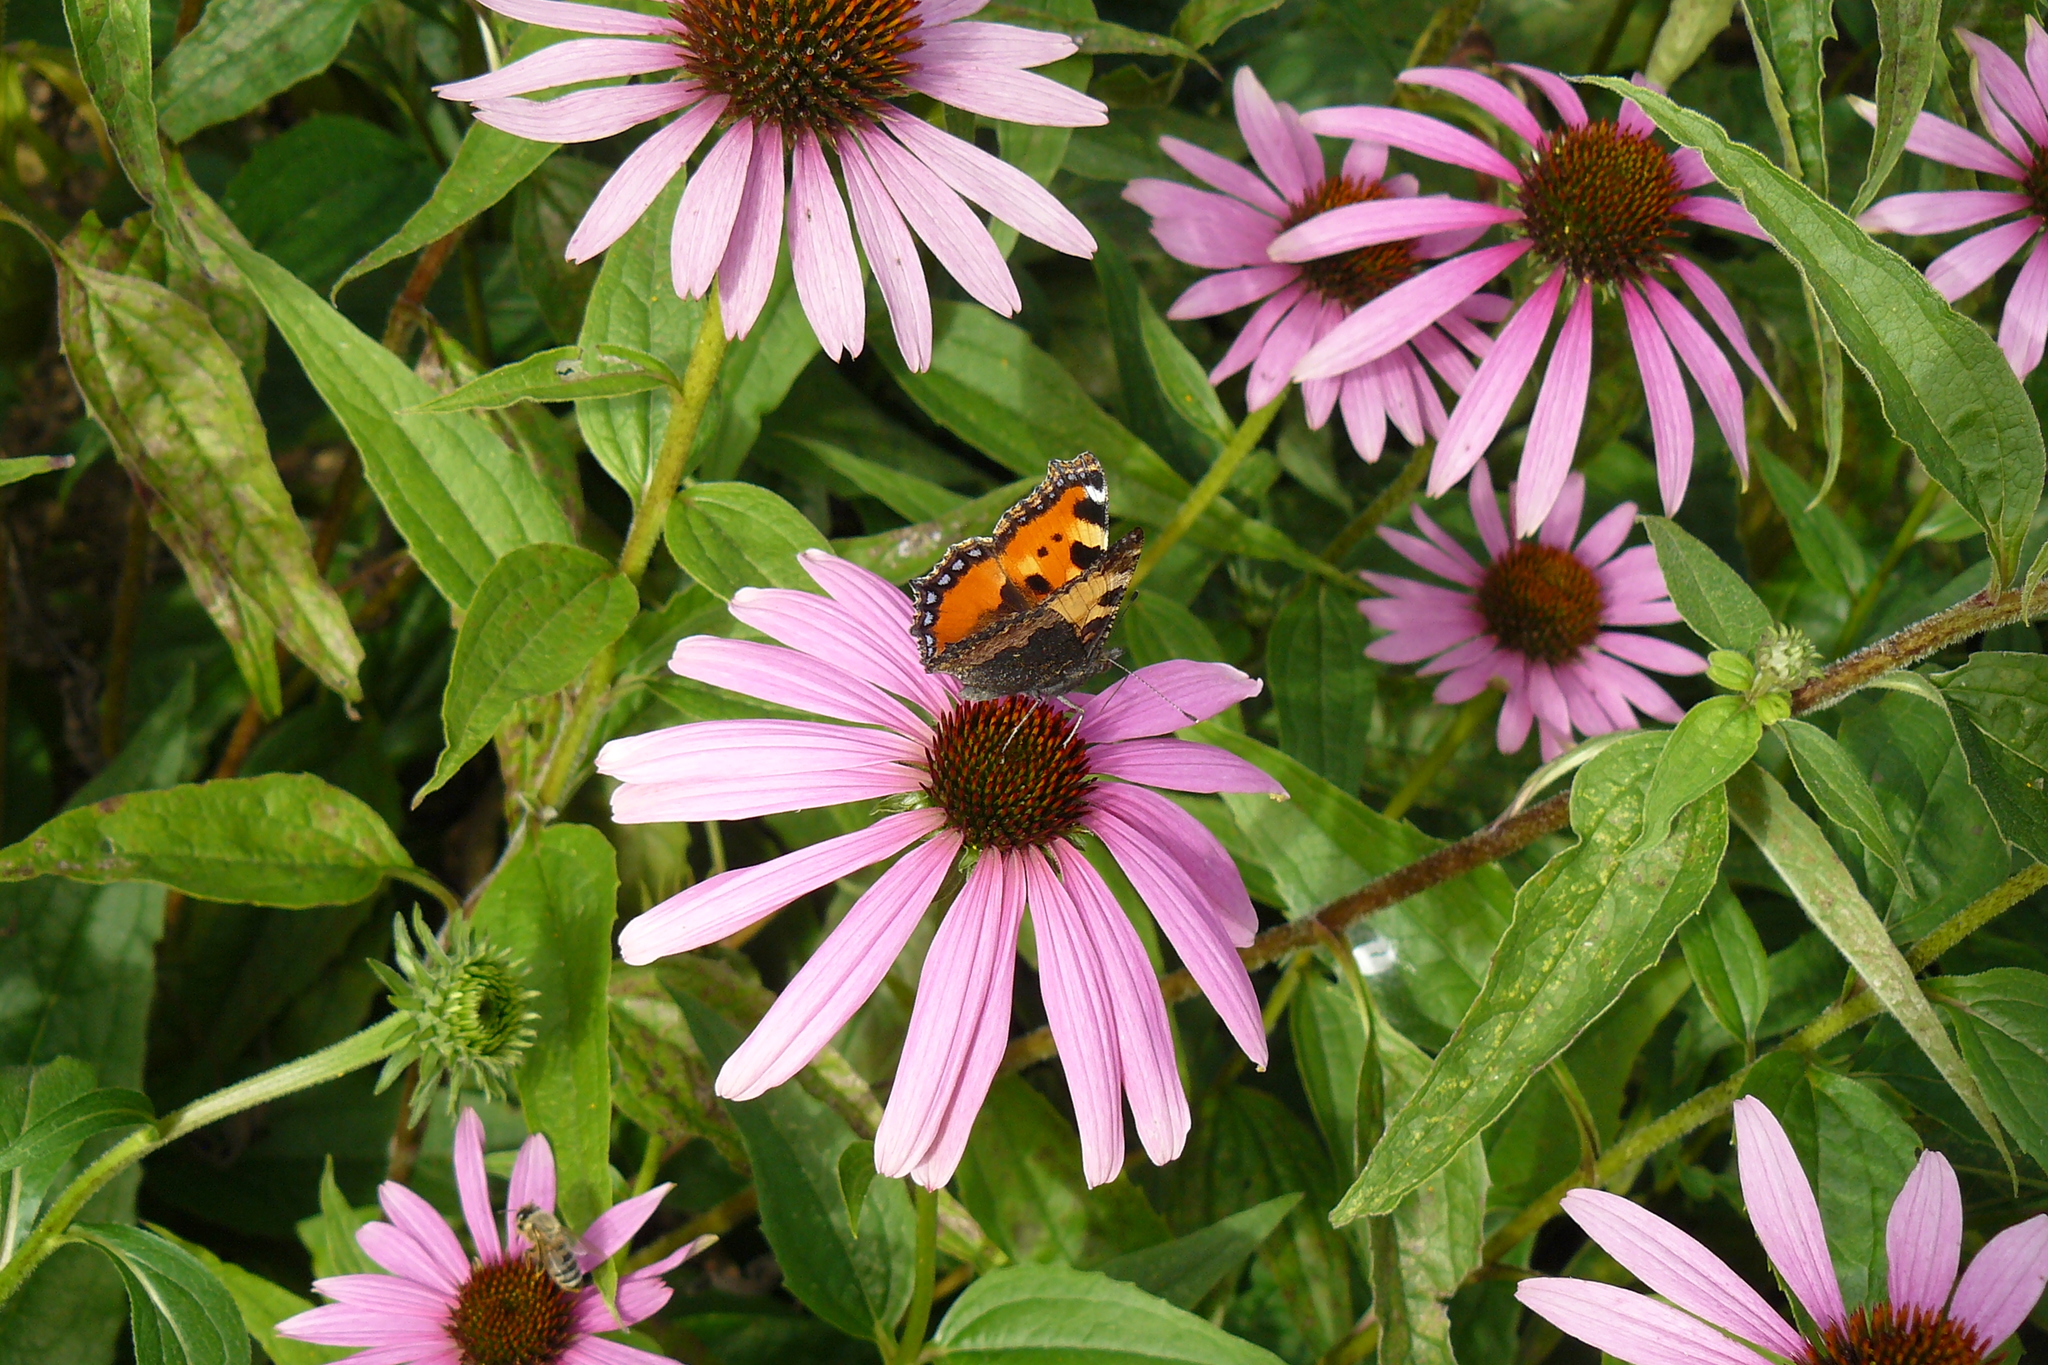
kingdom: Animalia
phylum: Arthropoda
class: Insecta
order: Lepidoptera
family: Nymphalidae
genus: Aglais
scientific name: Aglais urticae
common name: Small tortoiseshell
